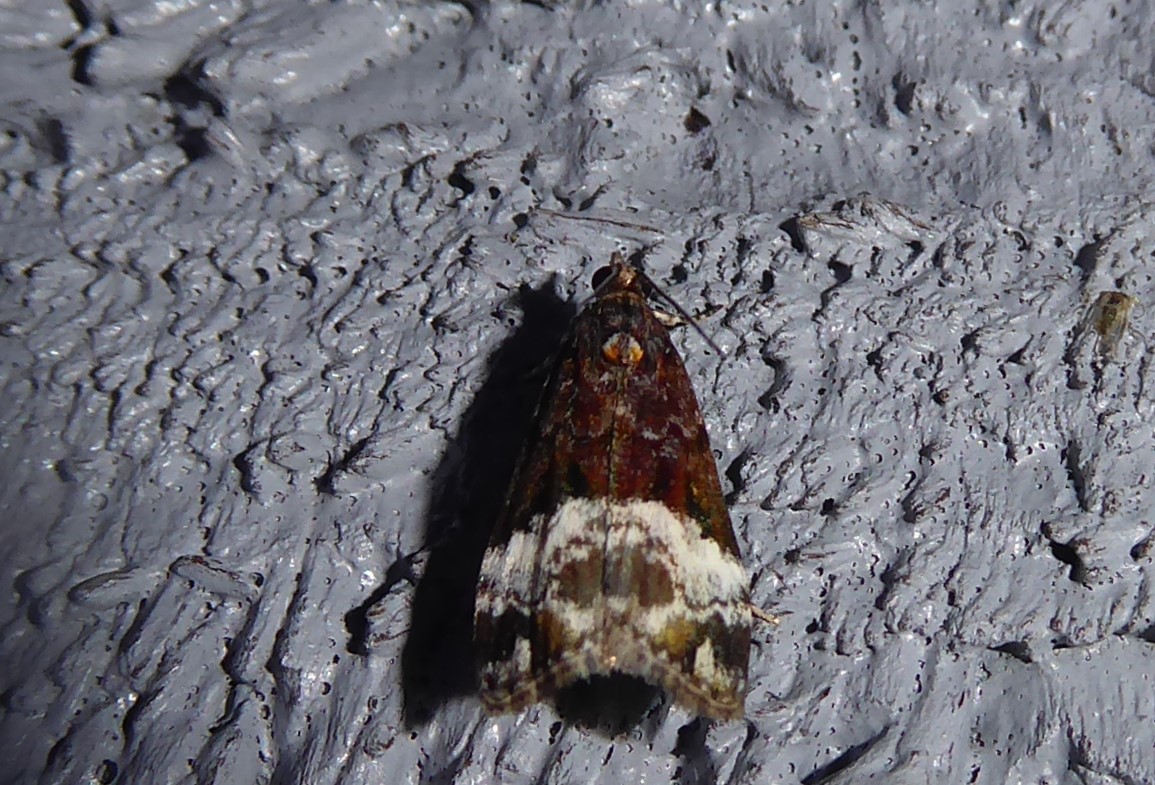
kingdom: Animalia
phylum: Arthropoda
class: Insecta
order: Lepidoptera
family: Crambidae
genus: Scoparia
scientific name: Scoparia minusculalis
